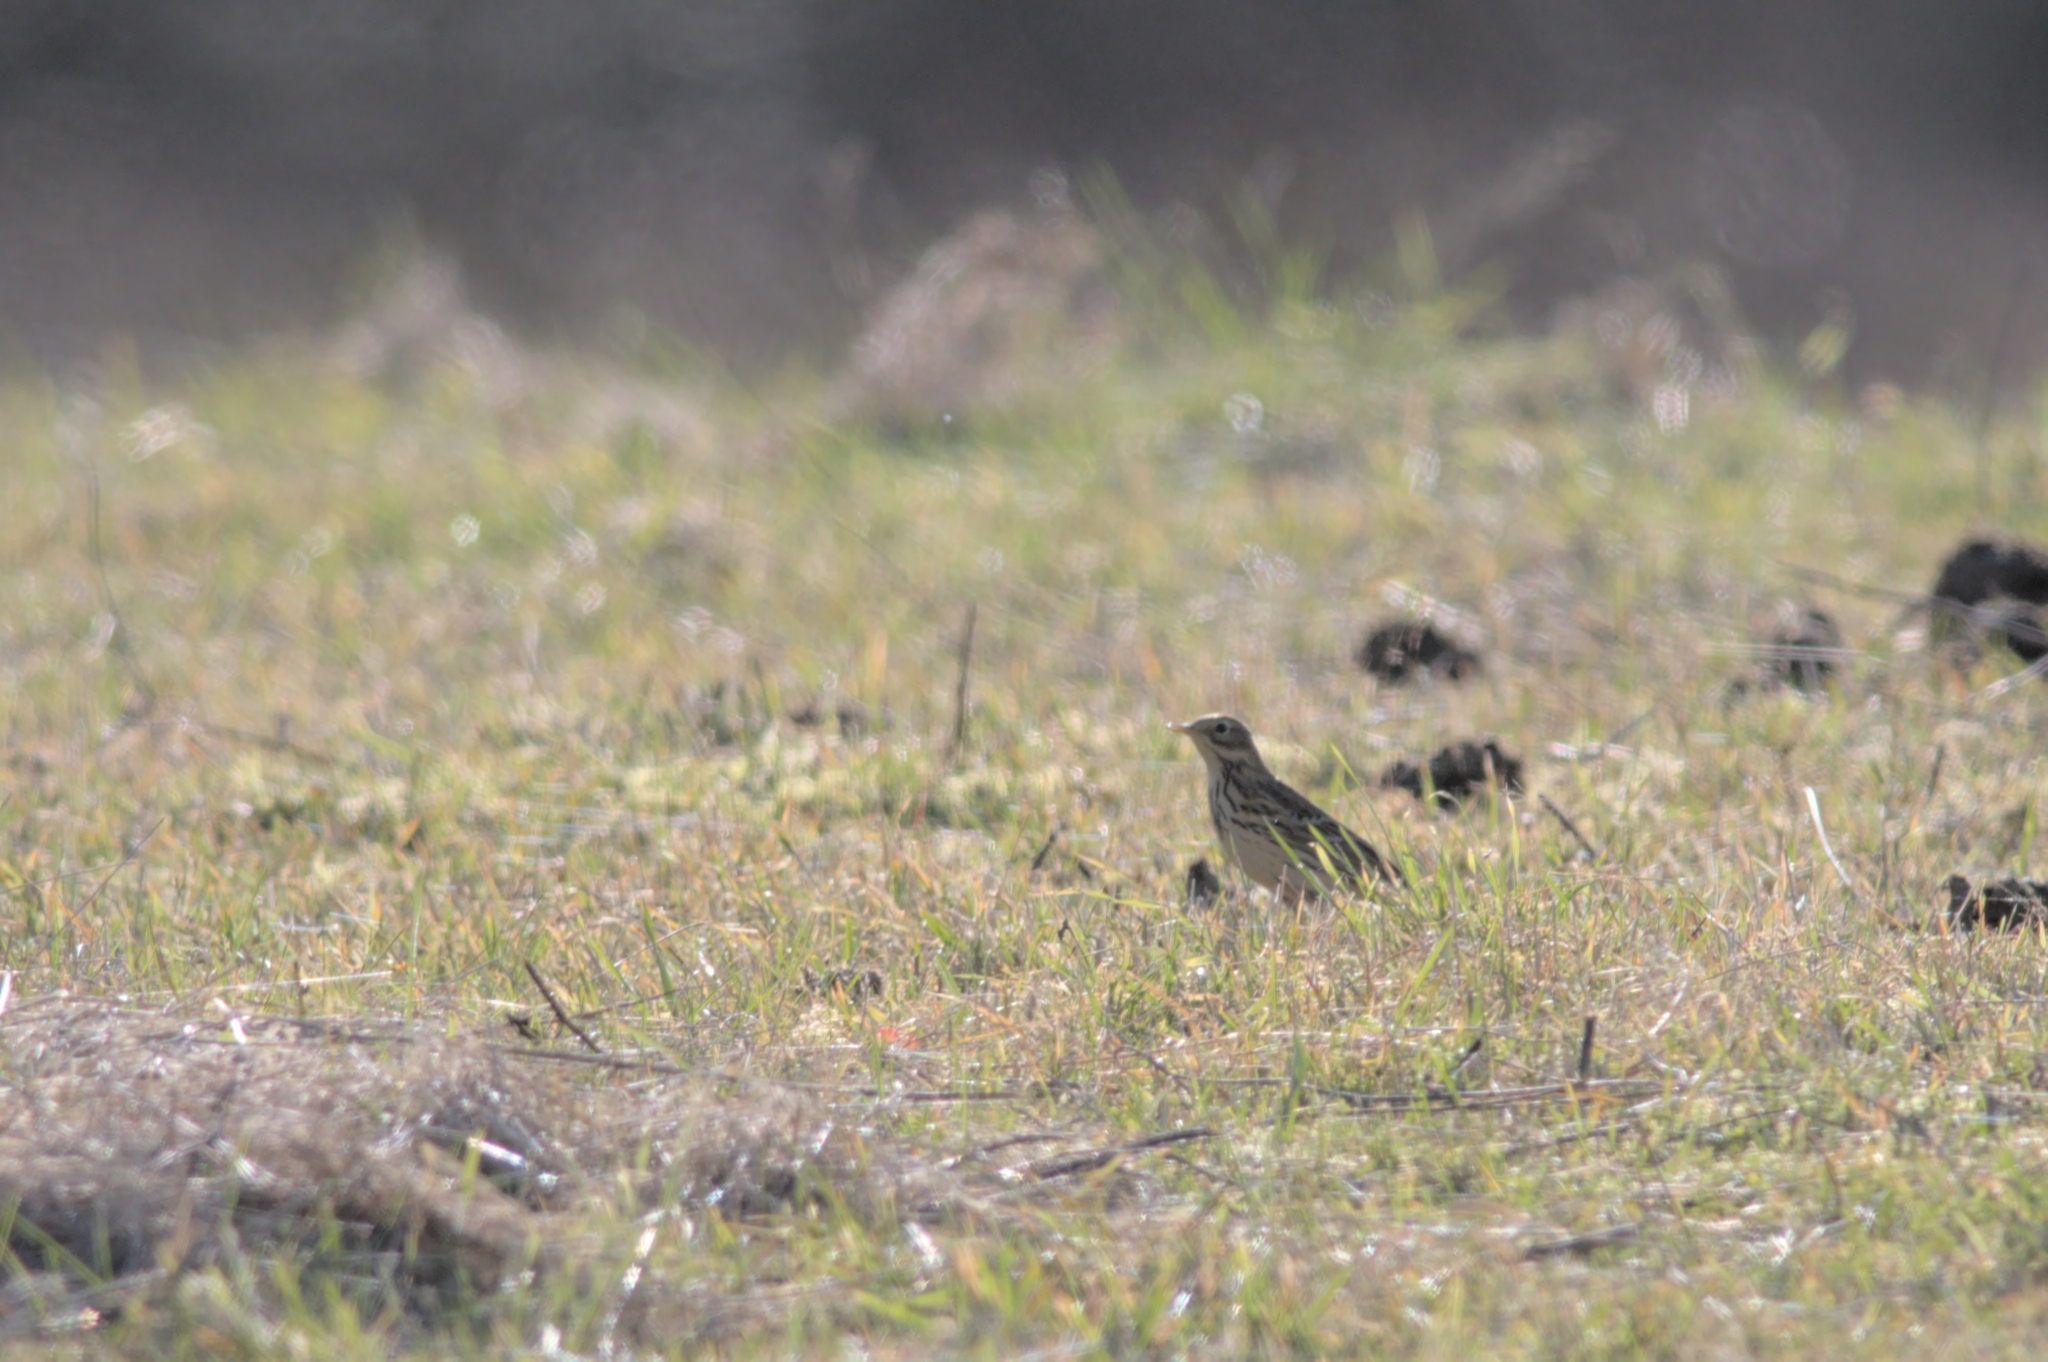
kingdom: Animalia
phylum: Chordata
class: Aves
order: Passeriformes
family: Motacillidae
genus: Anthus
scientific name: Anthus pratensis
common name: Meadow pipit
